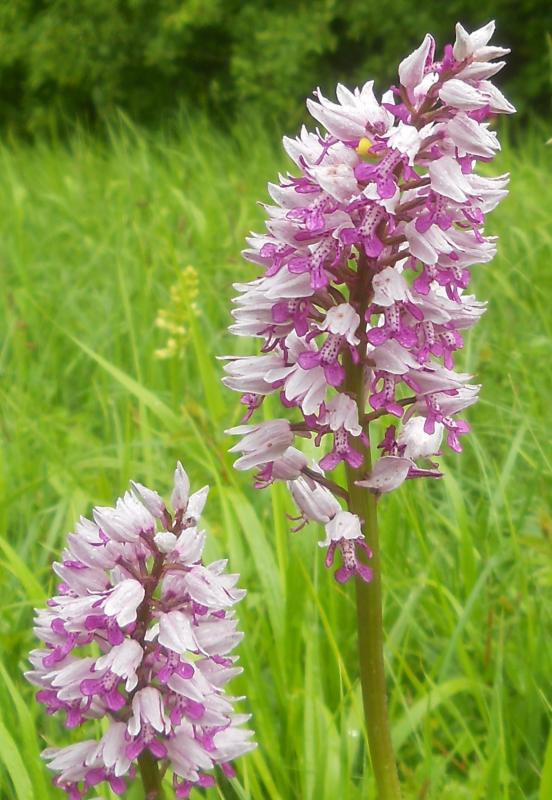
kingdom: Plantae
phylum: Tracheophyta
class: Liliopsida
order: Asparagales
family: Orchidaceae
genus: Orchis
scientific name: Orchis militaris
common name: Military orchid
